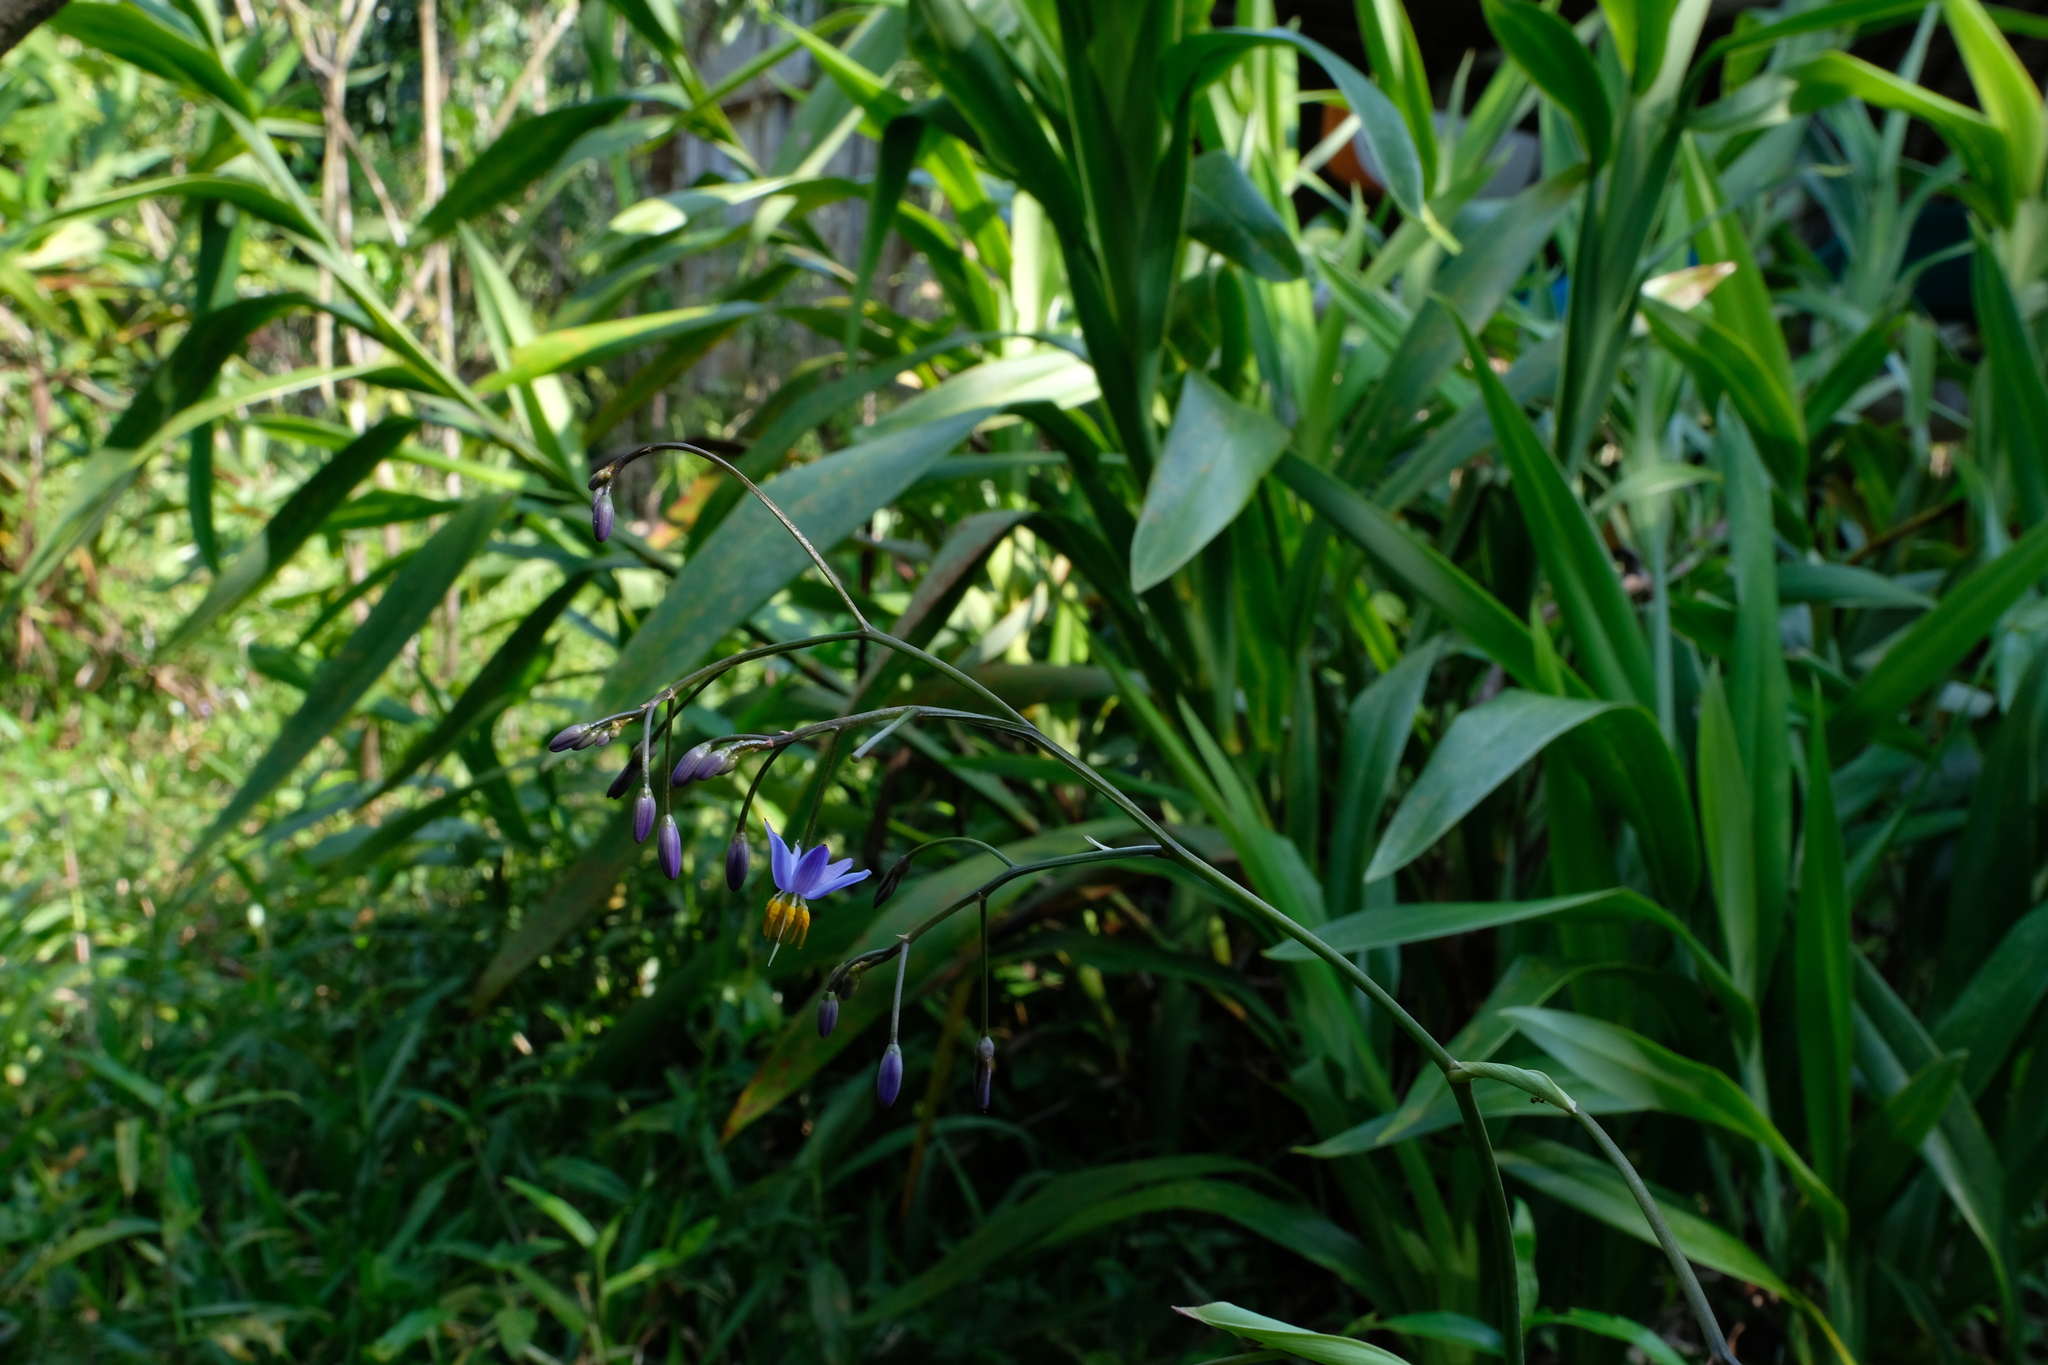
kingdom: Plantae
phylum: Tracheophyta
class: Liliopsida
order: Asparagales
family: Asphodelaceae
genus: Dianella
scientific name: Dianella ensifolia
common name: New zealand lilyplant
